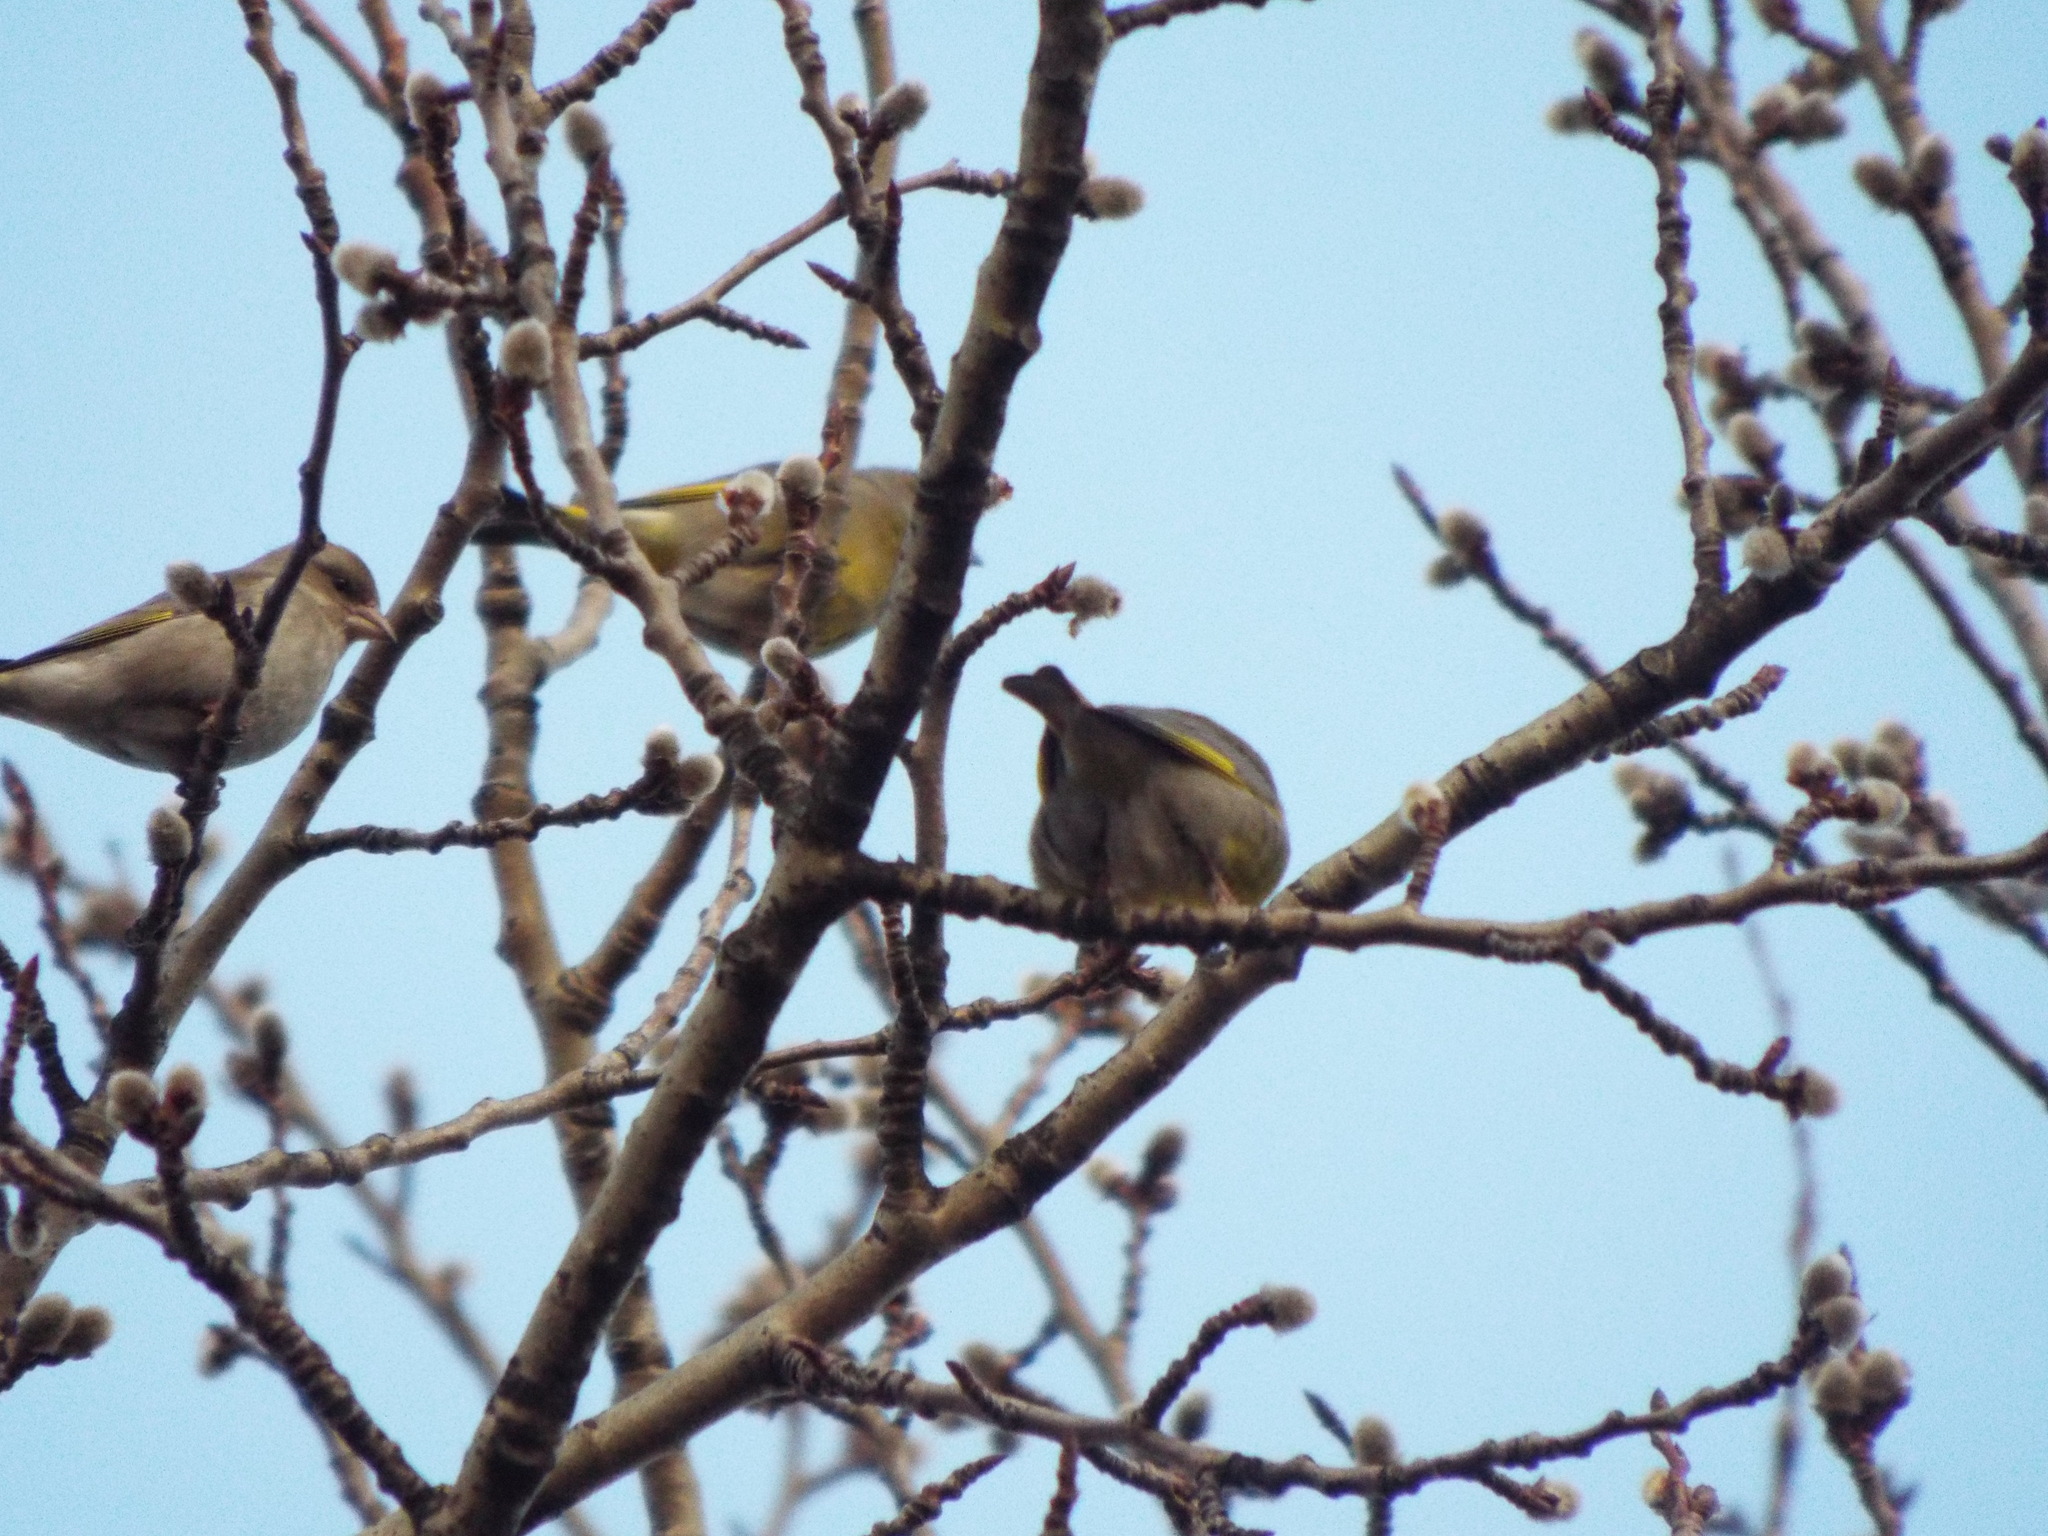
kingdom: Plantae
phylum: Tracheophyta
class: Liliopsida
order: Poales
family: Poaceae
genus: Chloris
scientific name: Chloris chloris
